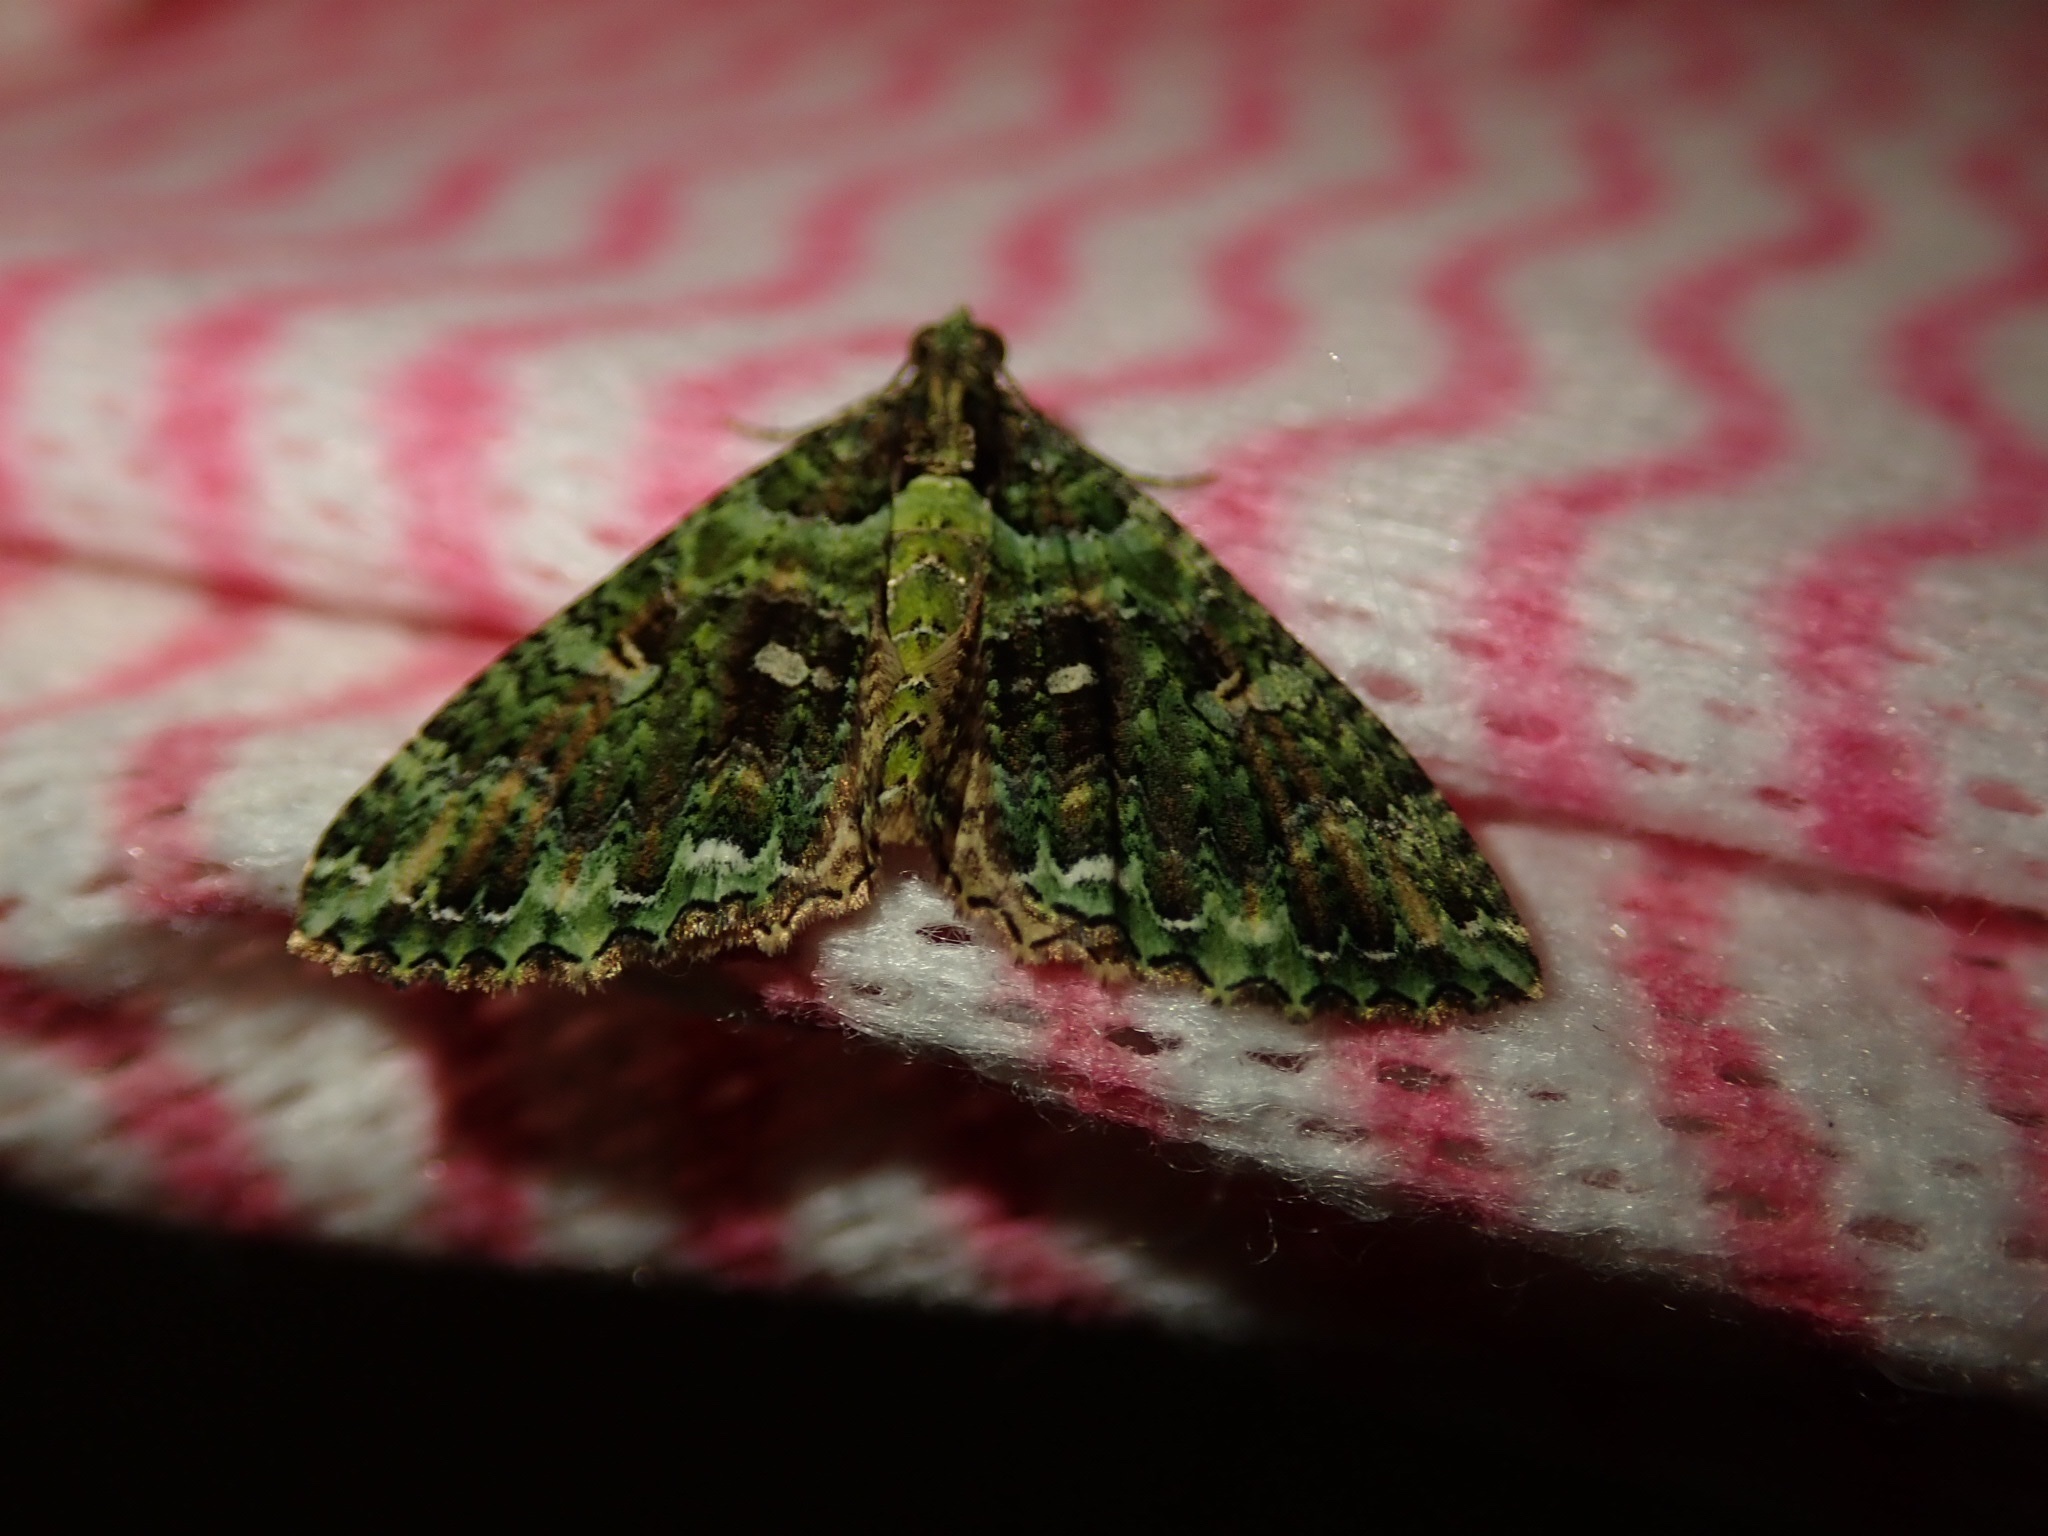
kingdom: Animalia
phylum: Arthropoda
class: Insecta
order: Lepidoptera
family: Geometridae
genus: Austrocidaria
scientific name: Austrocidaria similata
